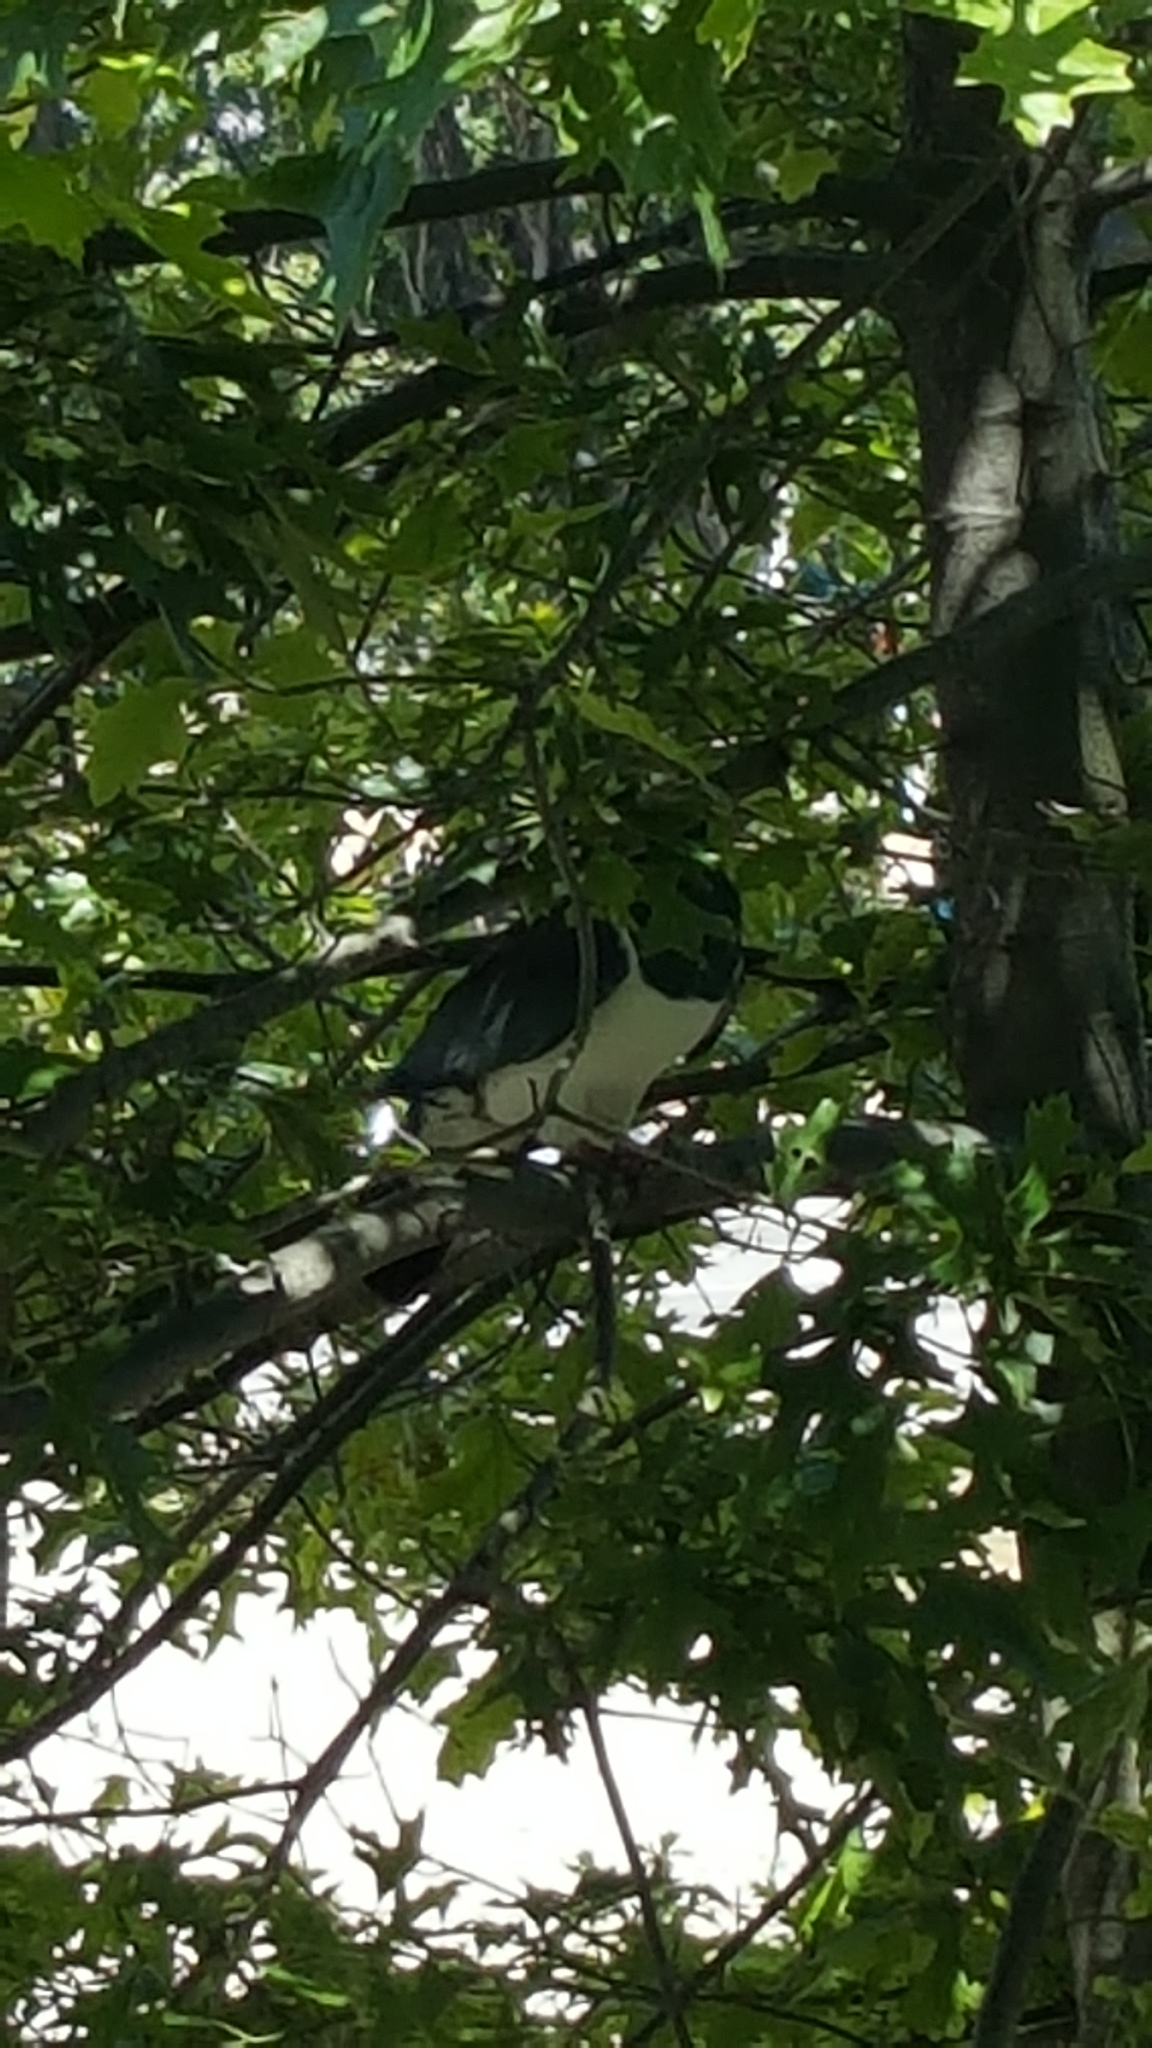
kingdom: Animalia
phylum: Chordata
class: Aves
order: Columbiformes
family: Columbidae
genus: Hemiphaga
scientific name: Hemiphaga novaeseelandiae
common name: New zealand pigeon
